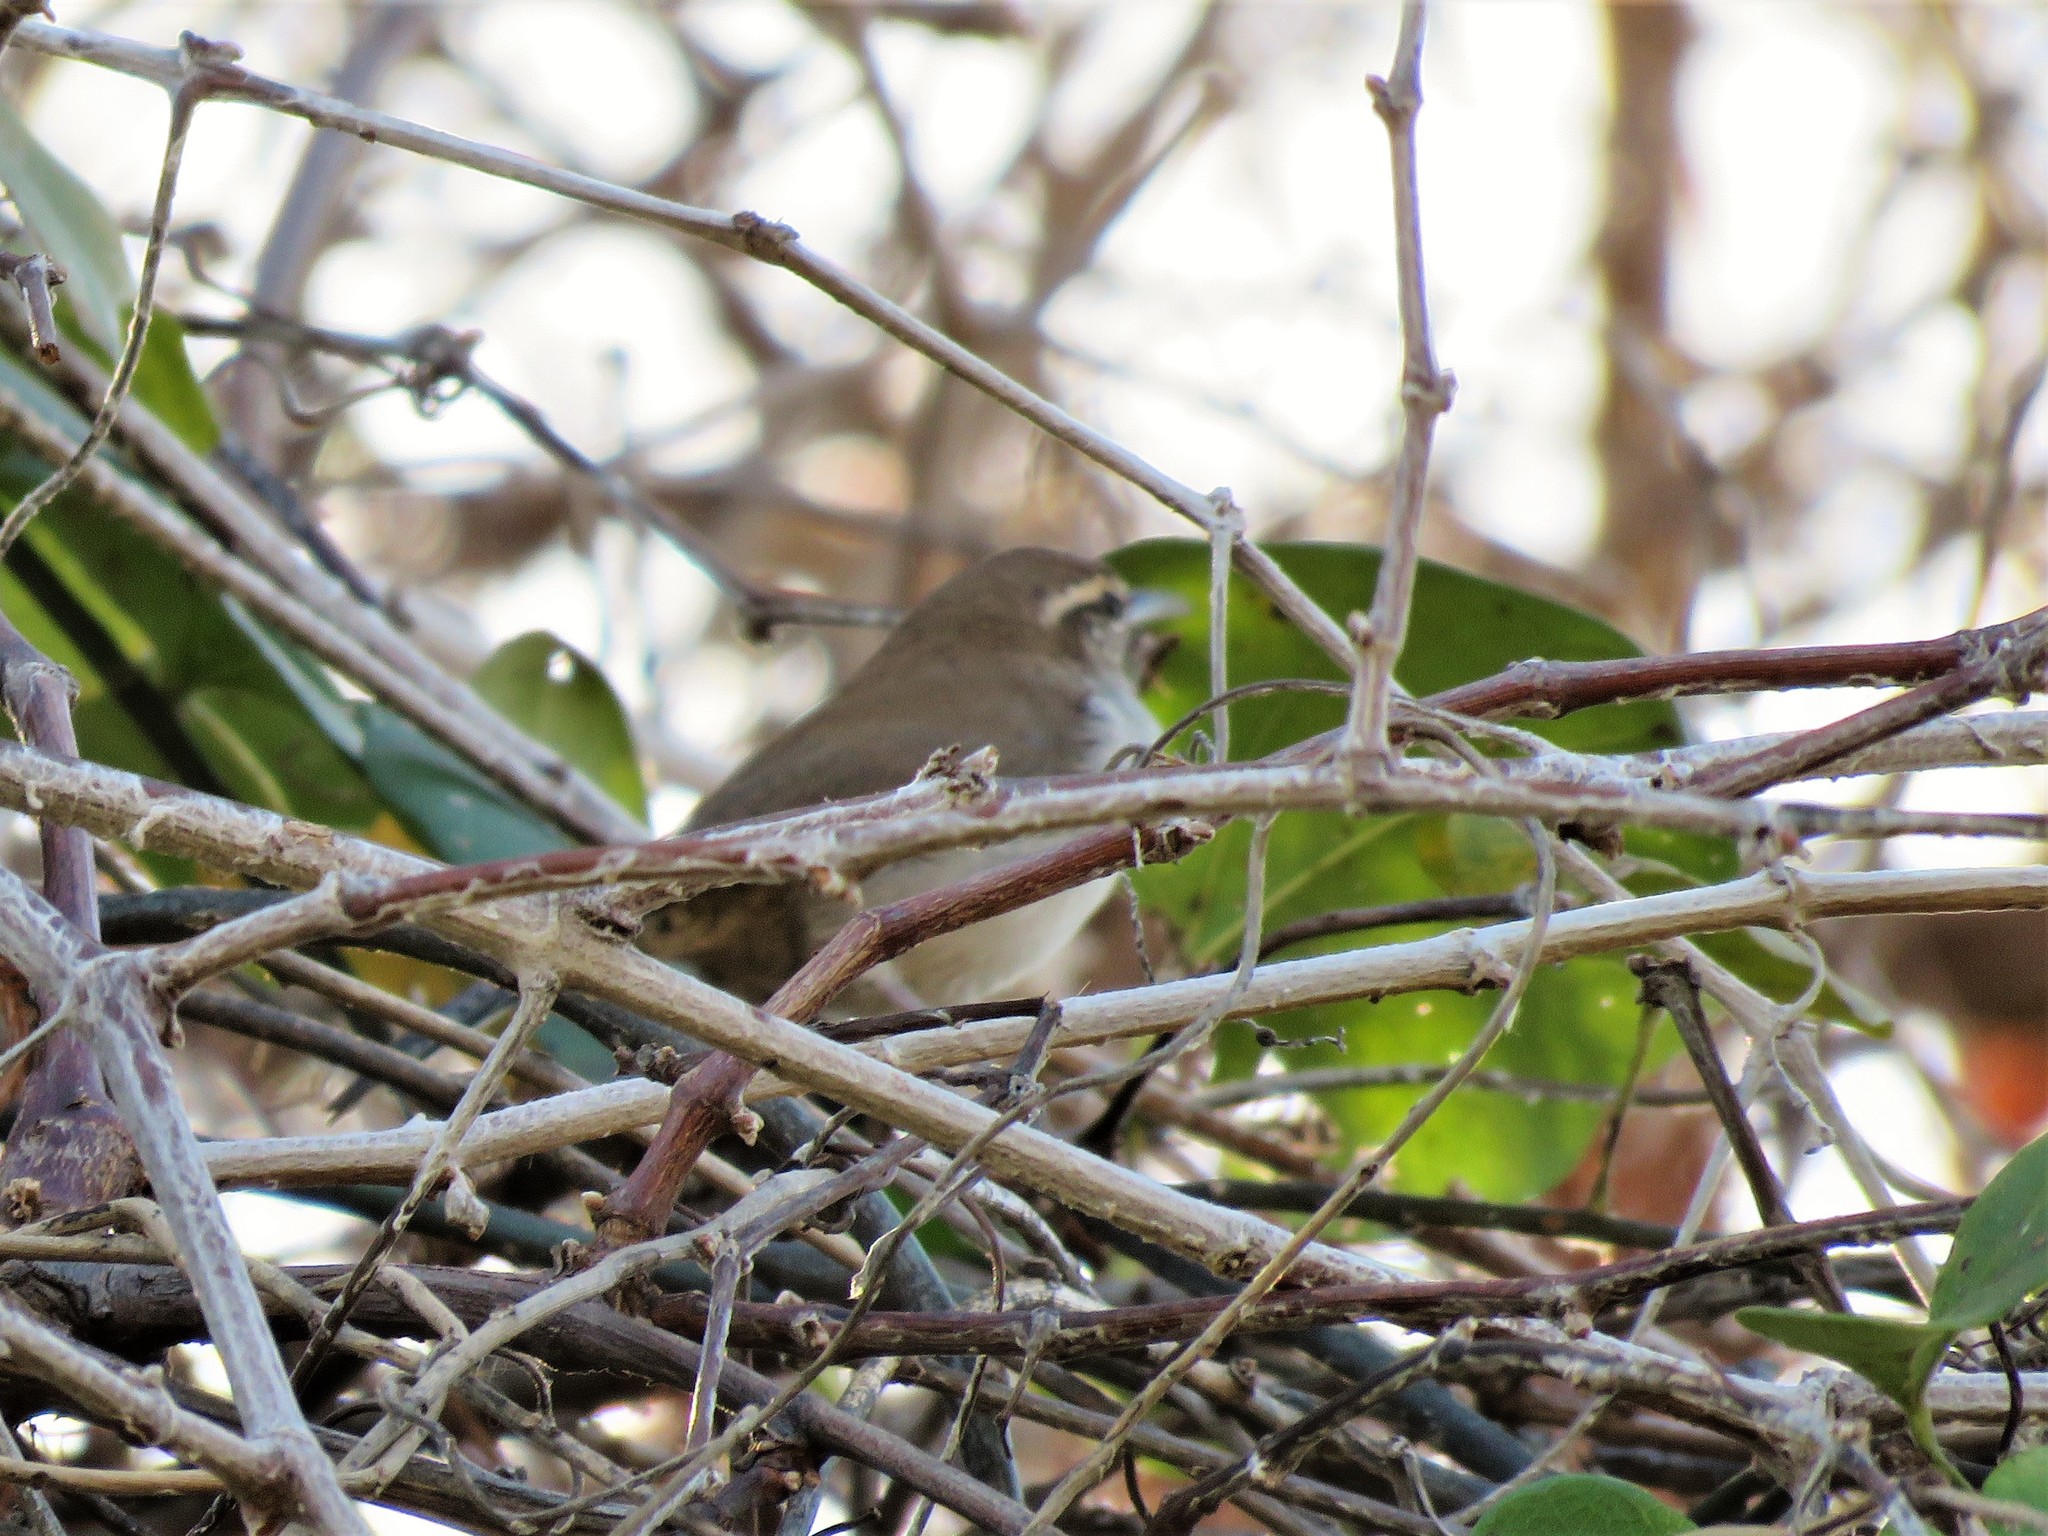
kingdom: Animalia
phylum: Chordata
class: Aves
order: Passeriformes
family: Troglodytidae
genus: Thryomanes
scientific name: Thryomanes bewickii
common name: Bewick's wren
